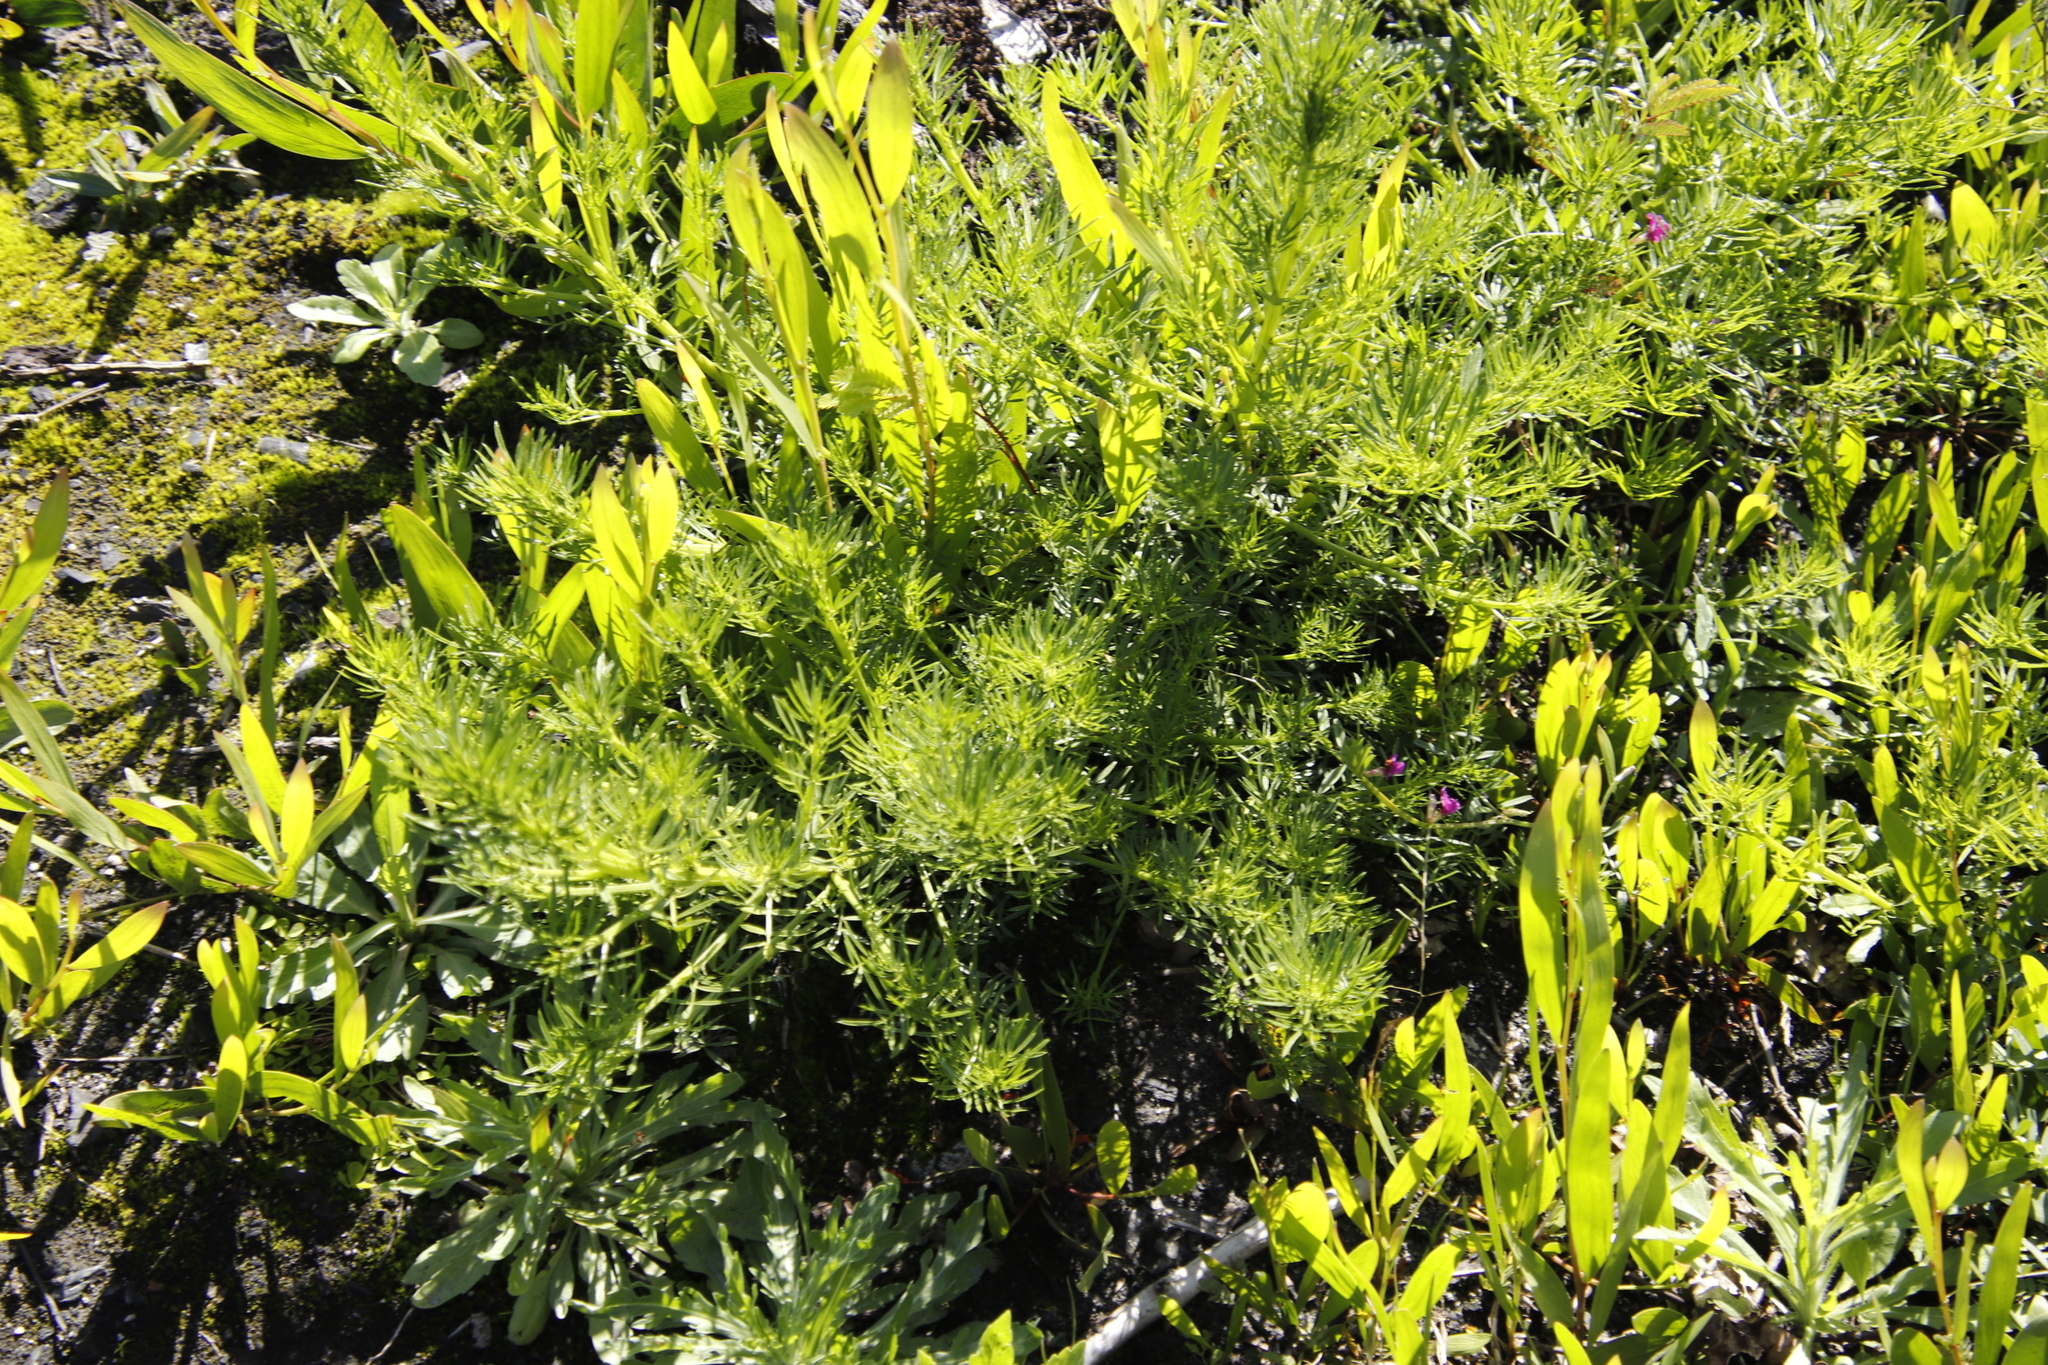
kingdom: Plantae
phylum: Tracheophyta
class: Magnoliopsida
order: Fabales
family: Fabaceae
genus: Psoralea
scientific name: Psoralea pinnata
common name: African scurfpea
